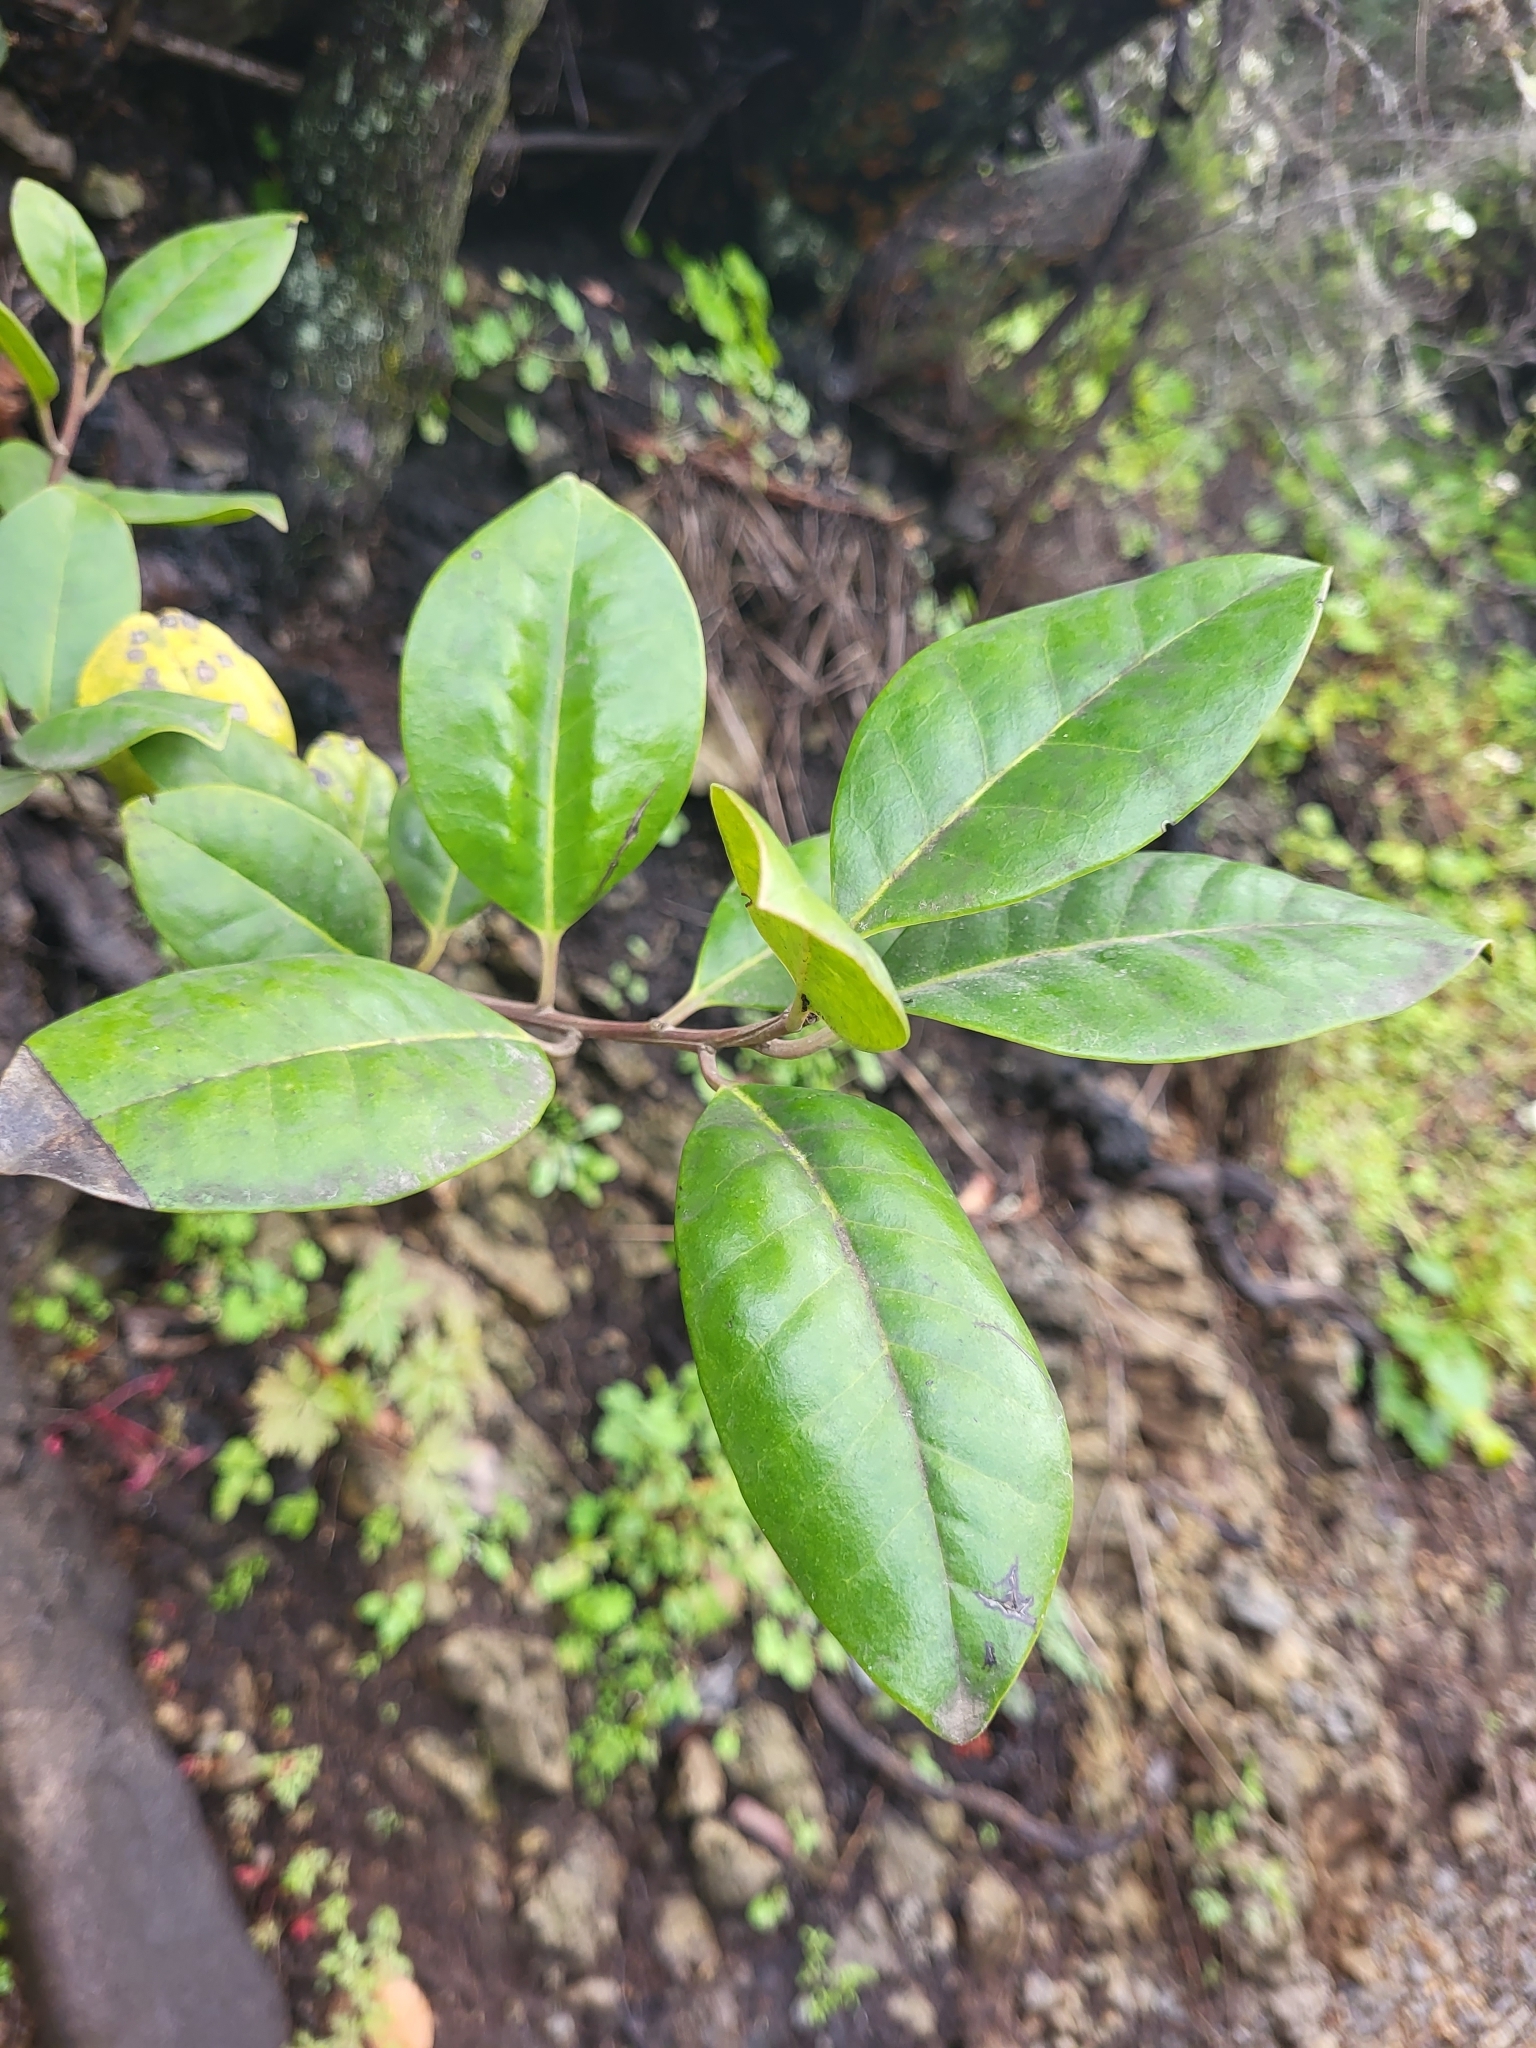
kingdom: Plantae
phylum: Tracheophyta
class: Magnoliopsida
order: Aquifoliales
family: Aquifoliaceae
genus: Ilex
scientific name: Ilex canariensis
